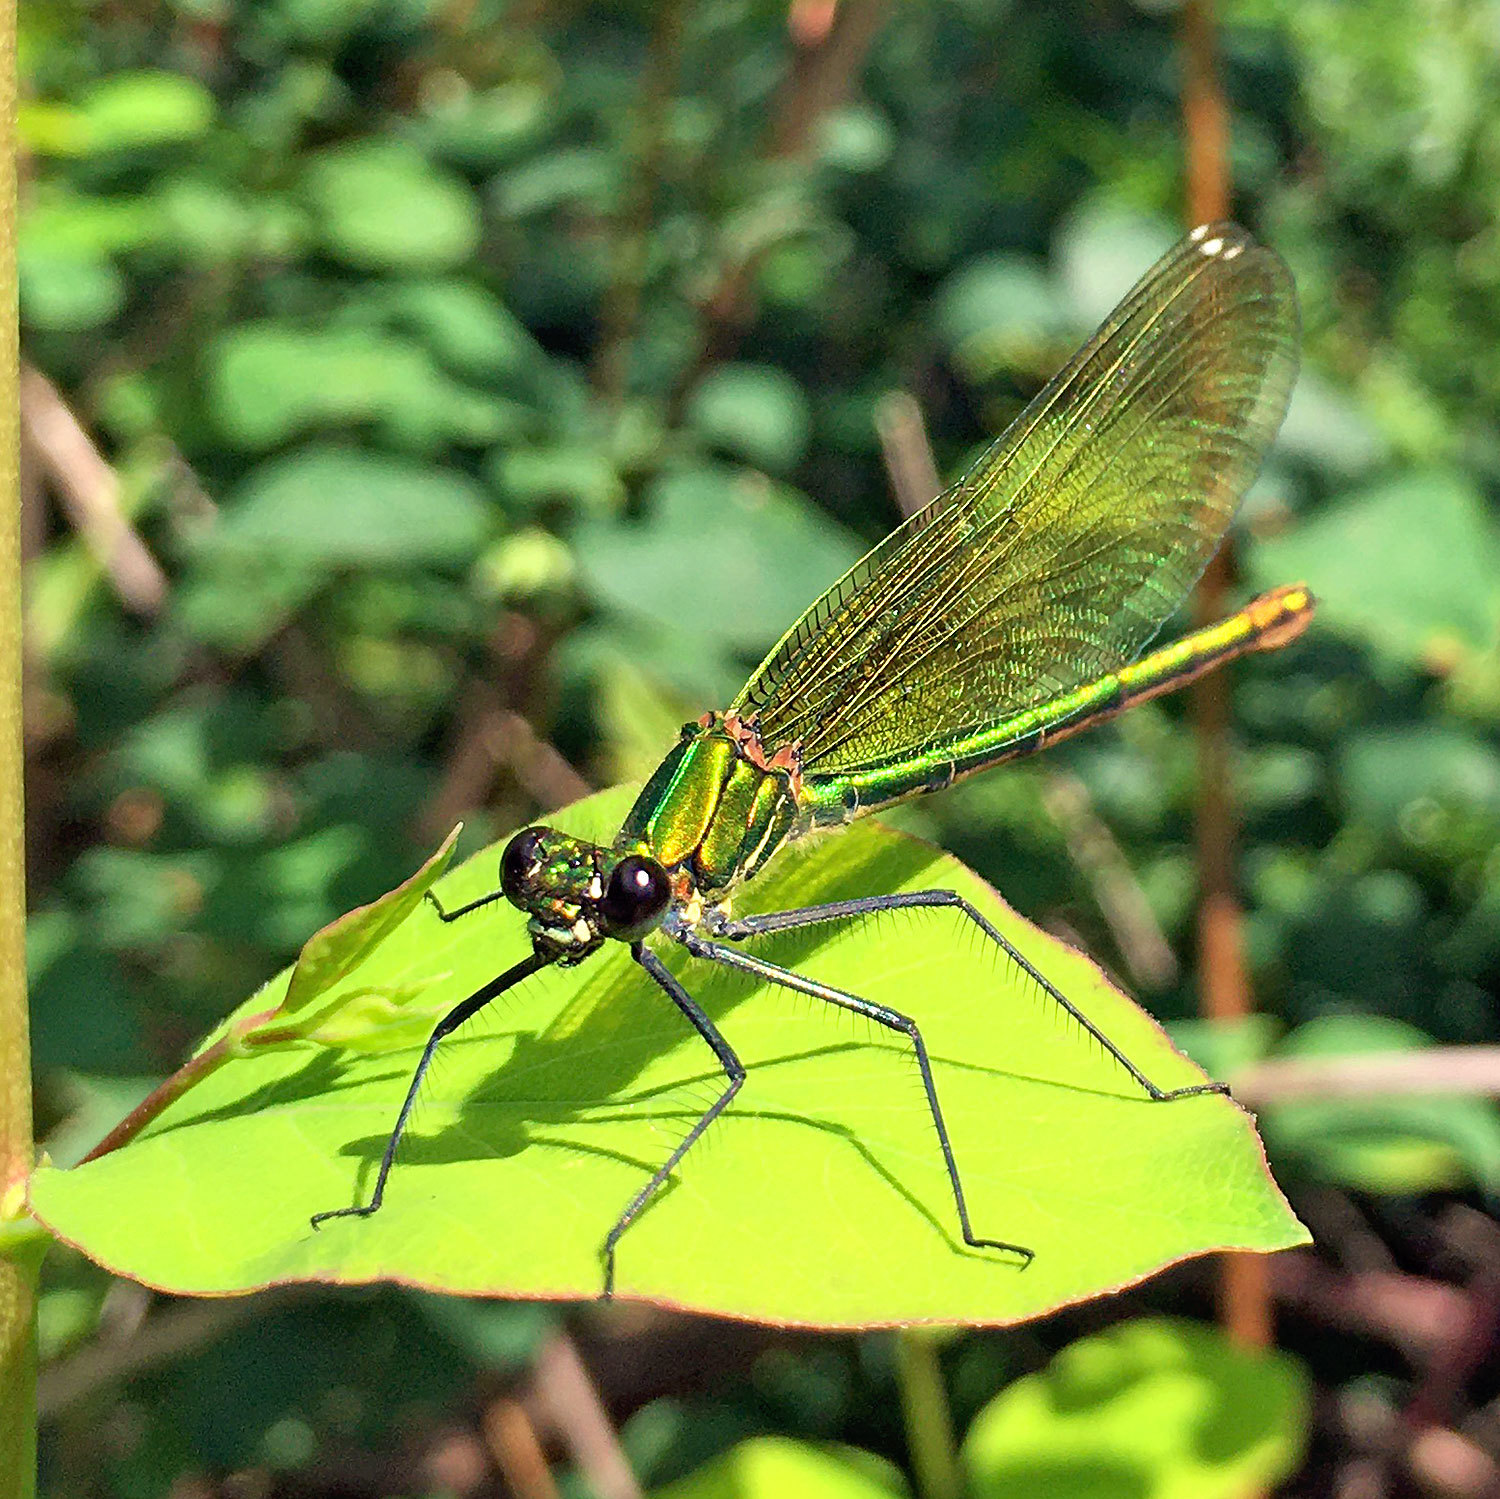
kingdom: Animalia
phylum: Arthropoda
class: Insecta
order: Odonata
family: Calopterygidae
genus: Calopteryx
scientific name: Calopteryx splendens
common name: Banded demoiselle
